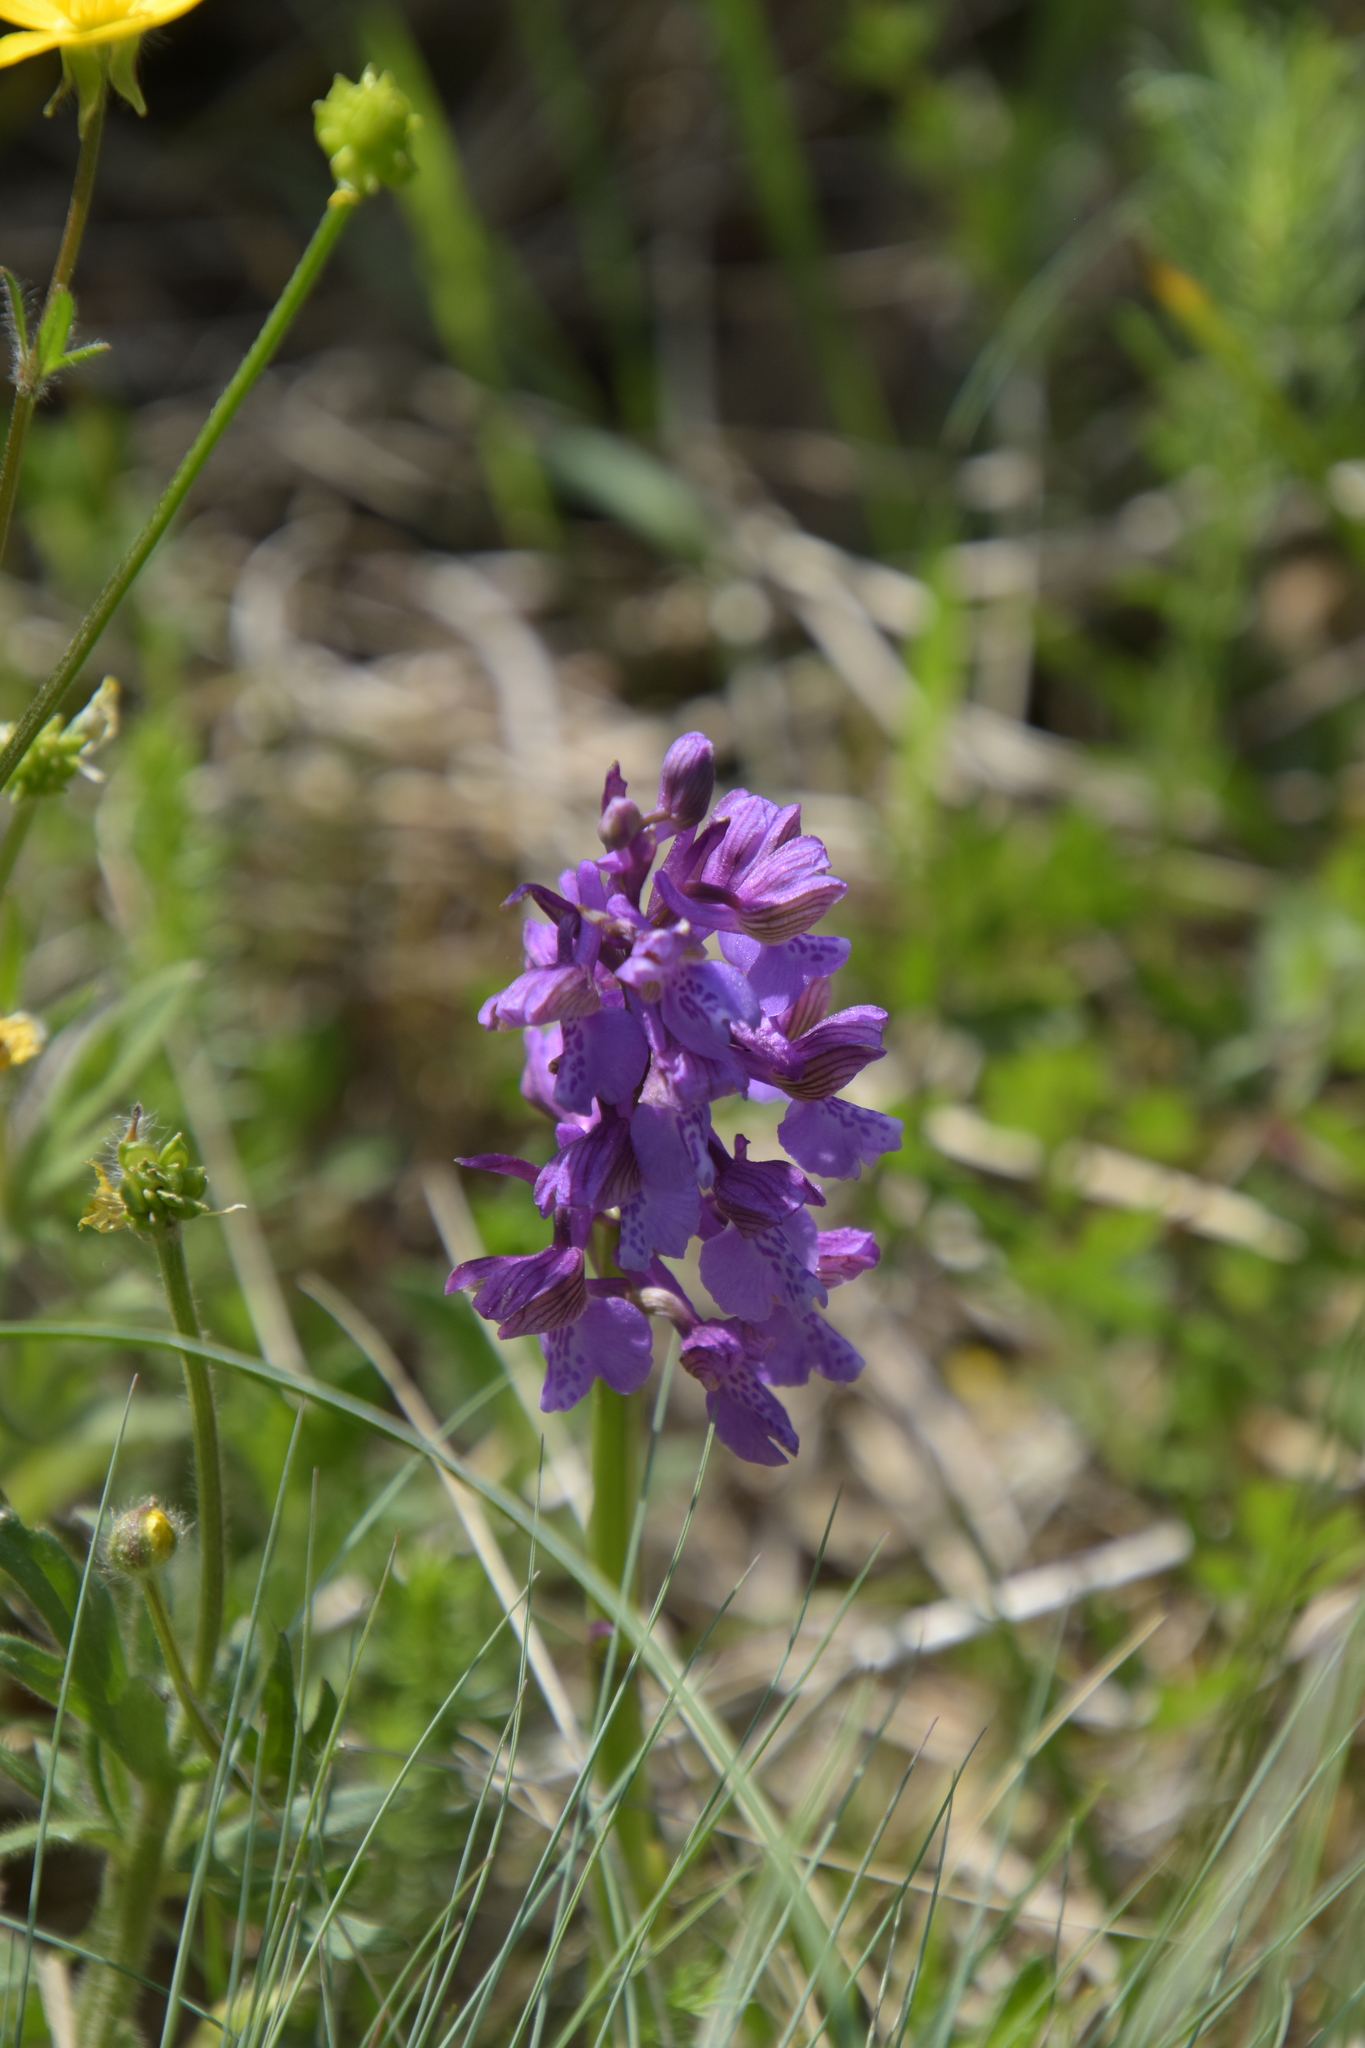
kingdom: Plantae
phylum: Tracheophyta
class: Liliopsida
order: Asparagales
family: Orchidaceae
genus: Anacamptis
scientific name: Anacamptis morio
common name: Green-winged orchid
